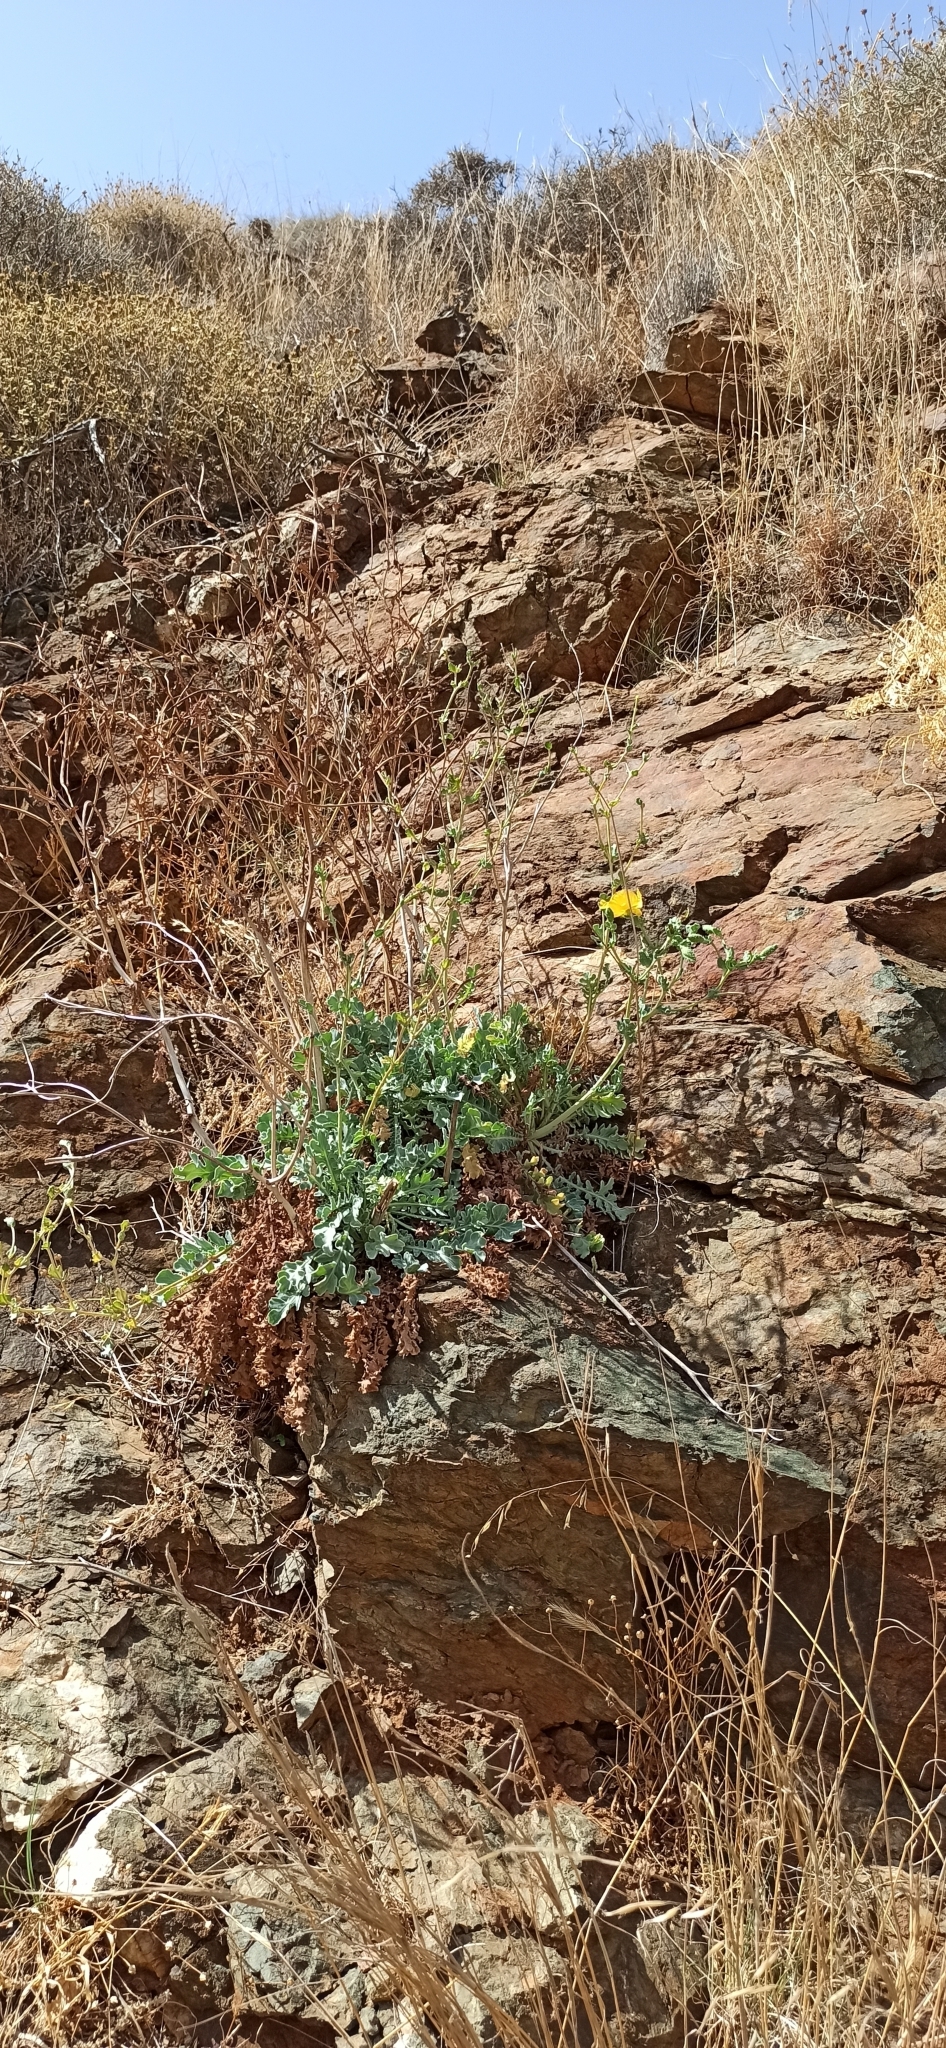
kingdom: Plantae
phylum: Tracheophyta
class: Magnoliopsida
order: Ranunculales
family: Papaveraceae
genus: Glaucium
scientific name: Glaucium flavum
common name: Yellow horned-poppy
